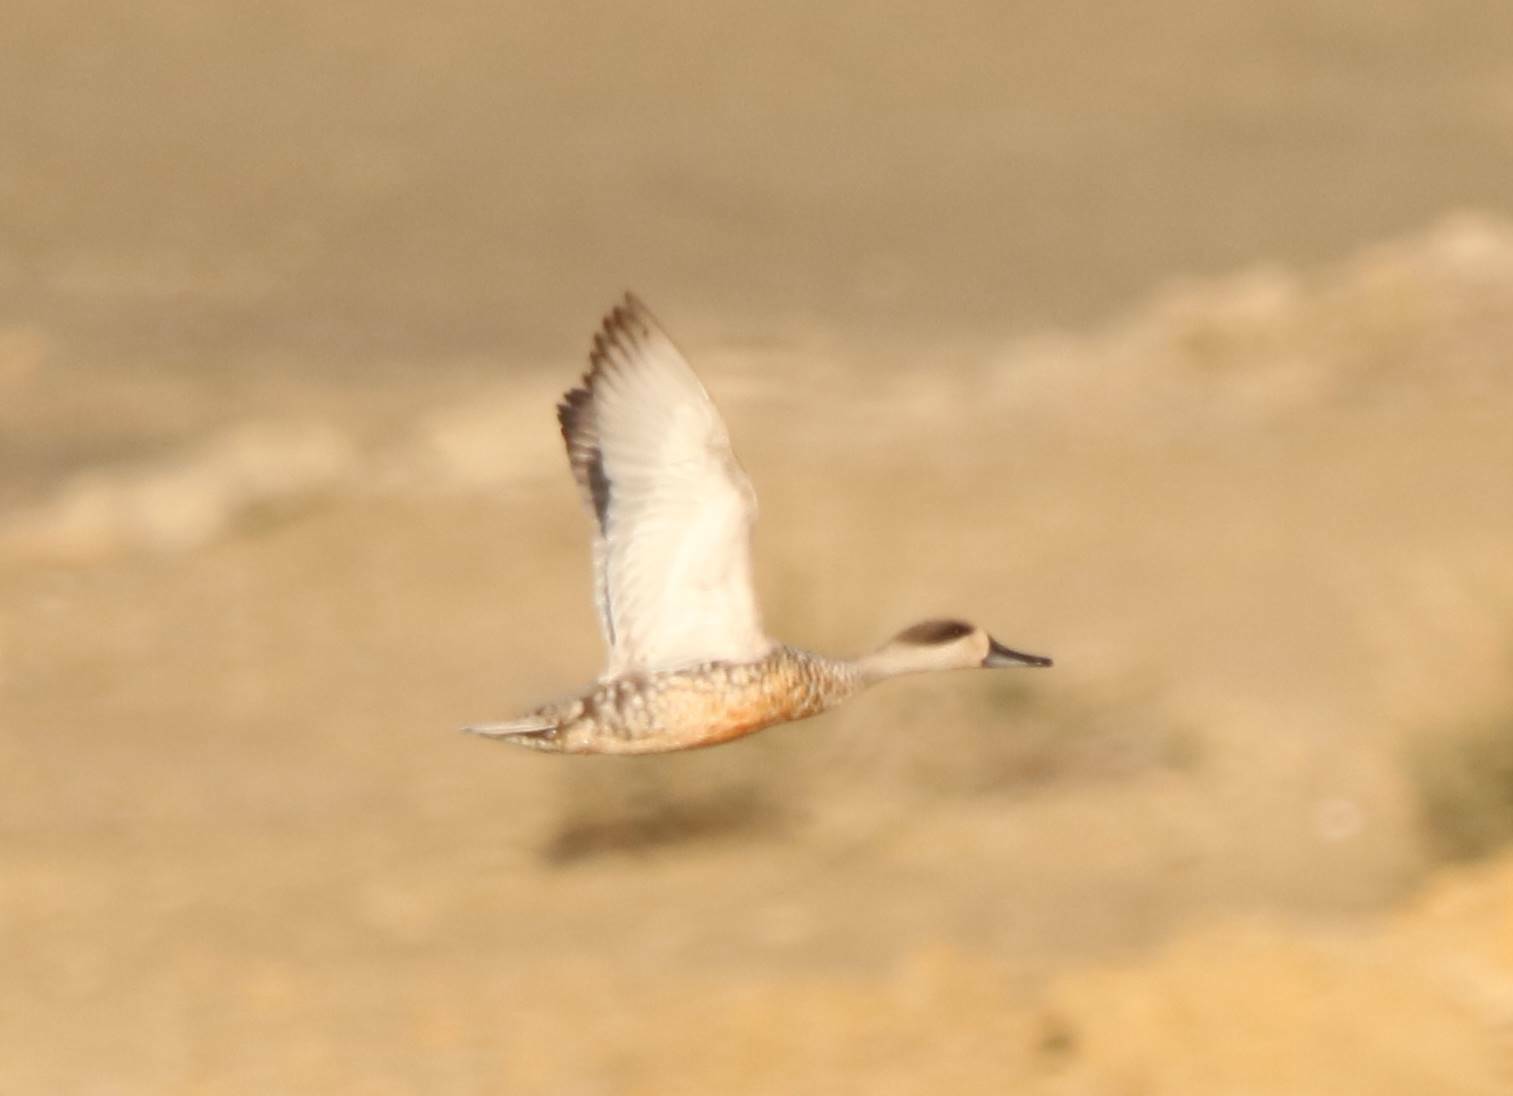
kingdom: Animalia
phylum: Chordata
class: Aves
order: Anseriformes
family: Anatidae
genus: Marmaronetta
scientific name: Marmaronetta angustirostris
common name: Marbled duck
